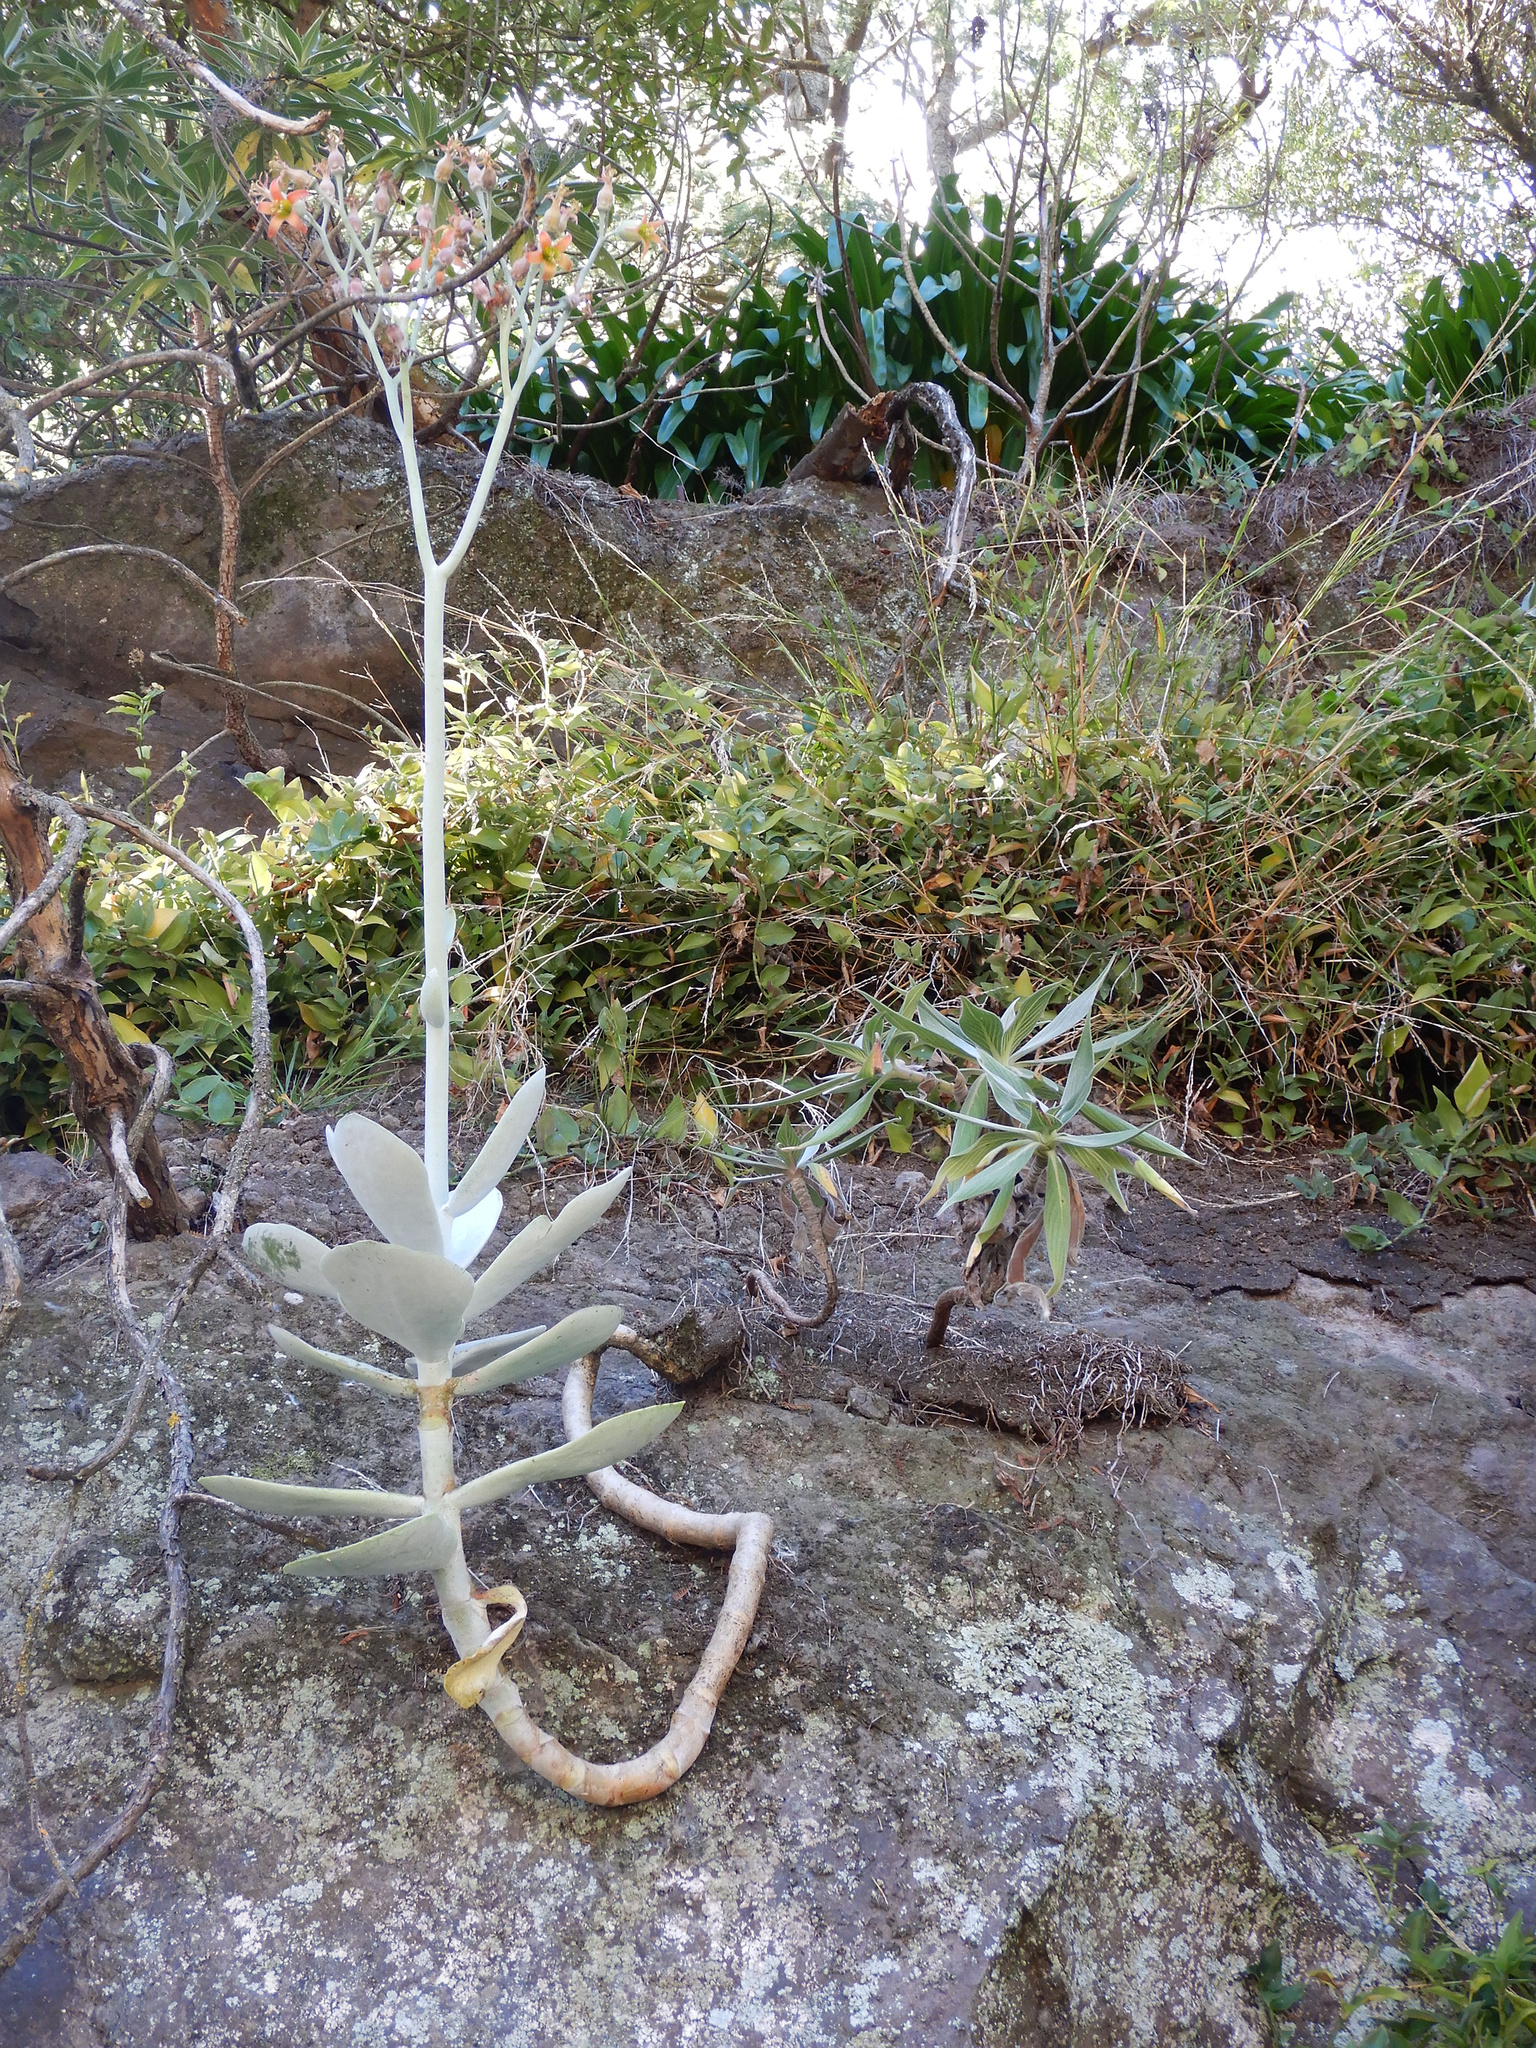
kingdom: Plantae
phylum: Tracheophyta
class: Magnoliopsida
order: Saxifragales
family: Crassulaceae
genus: Cotyledon
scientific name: Cotyledon orbiculata
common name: Pig's ear
